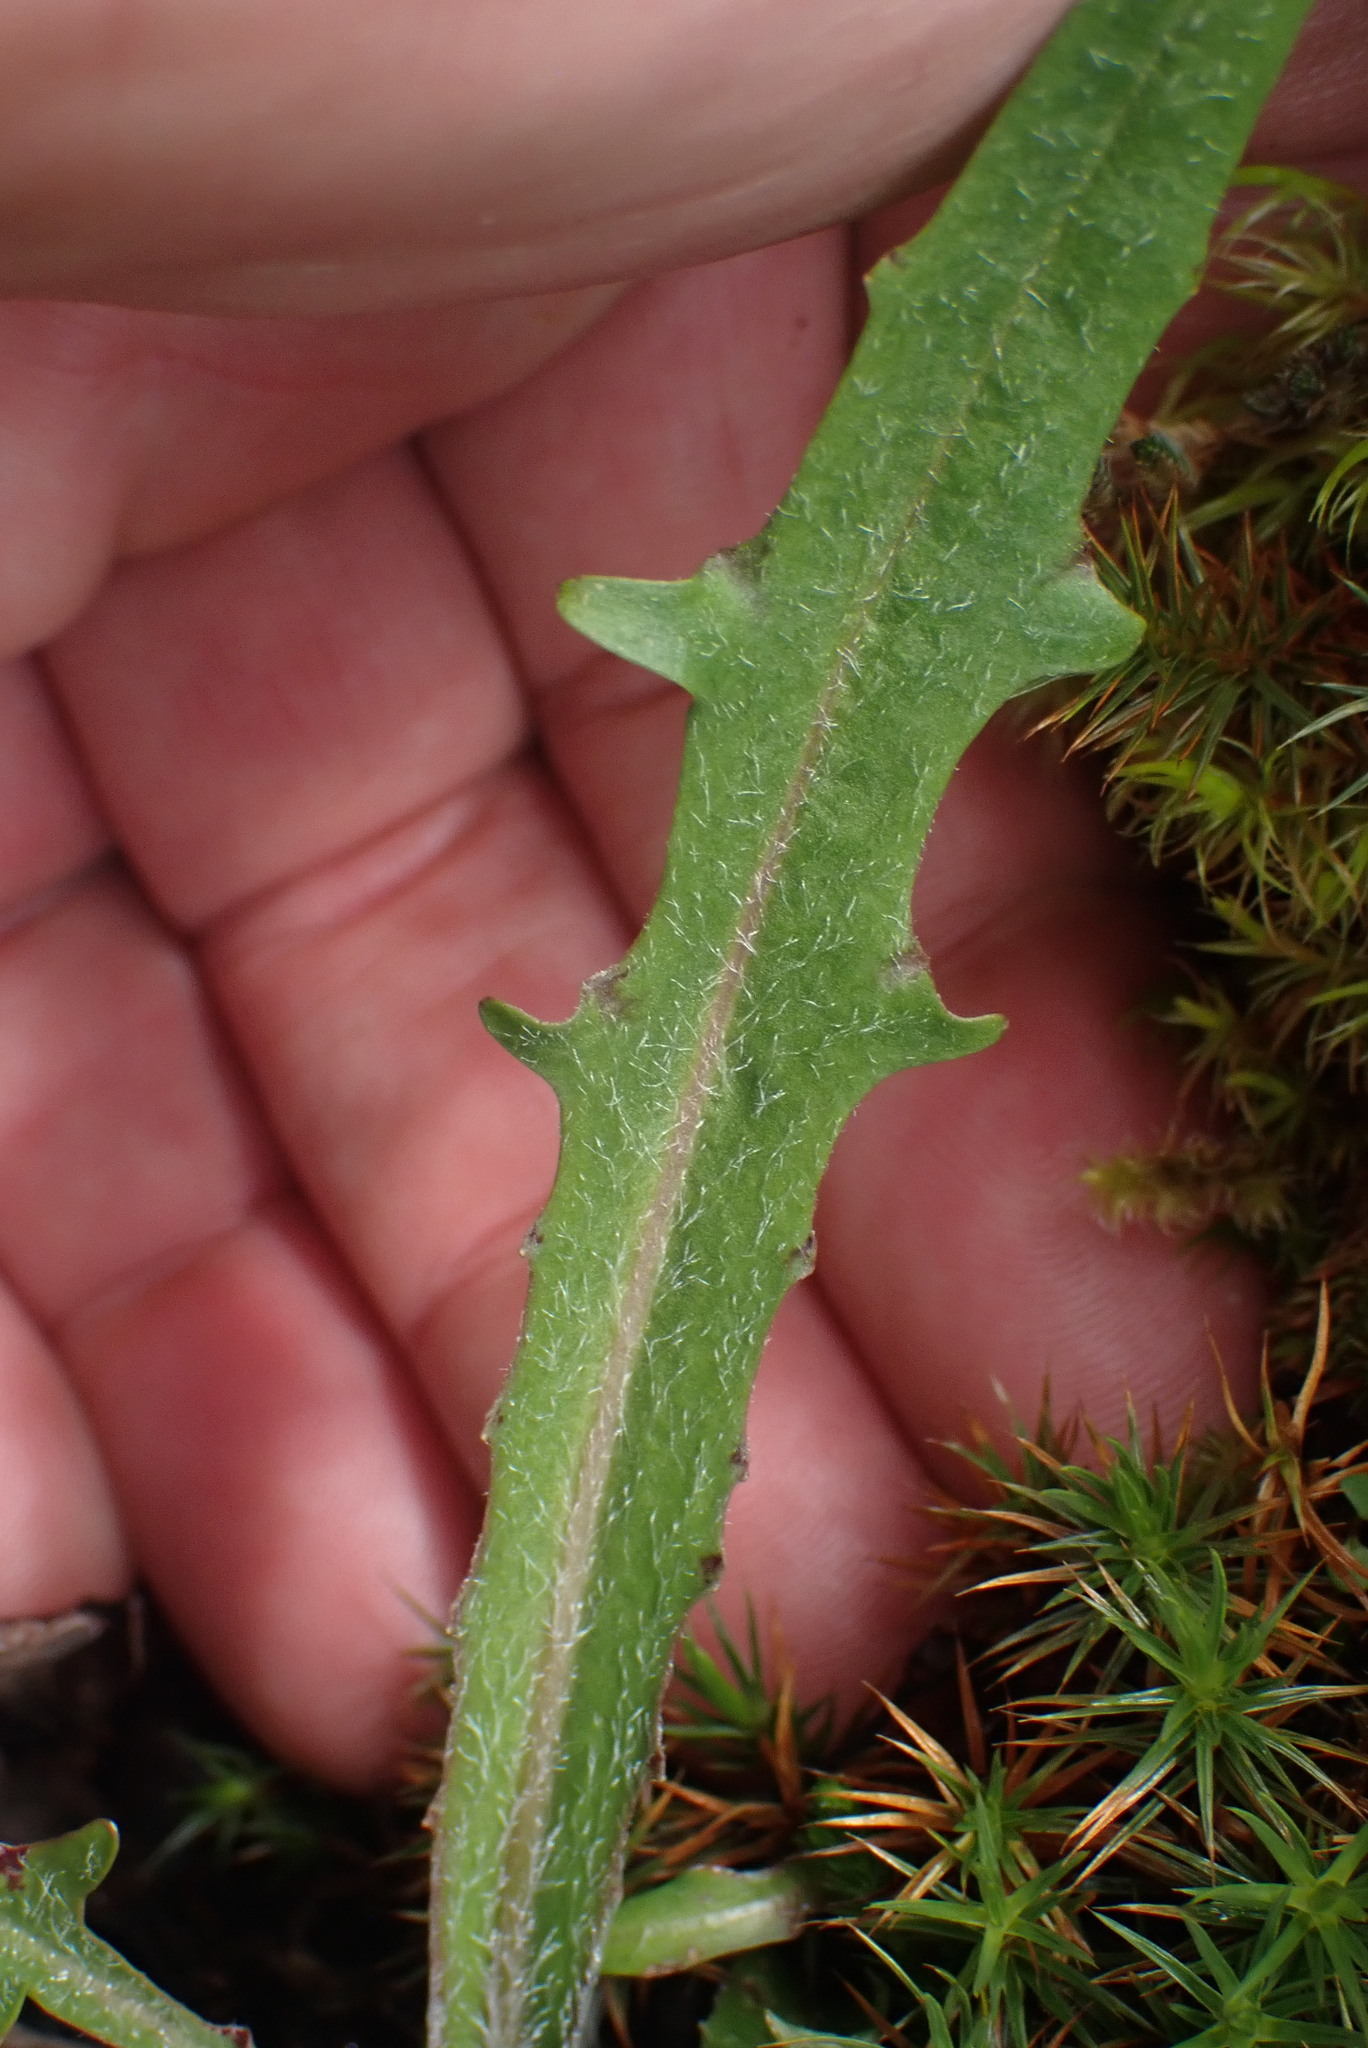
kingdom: Plantae
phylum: Tracheophyta
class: Magnoliopsida
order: Asterales
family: Asteraceae
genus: Agoseris
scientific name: Agoseris grandiflora
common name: Grassland agoseris
